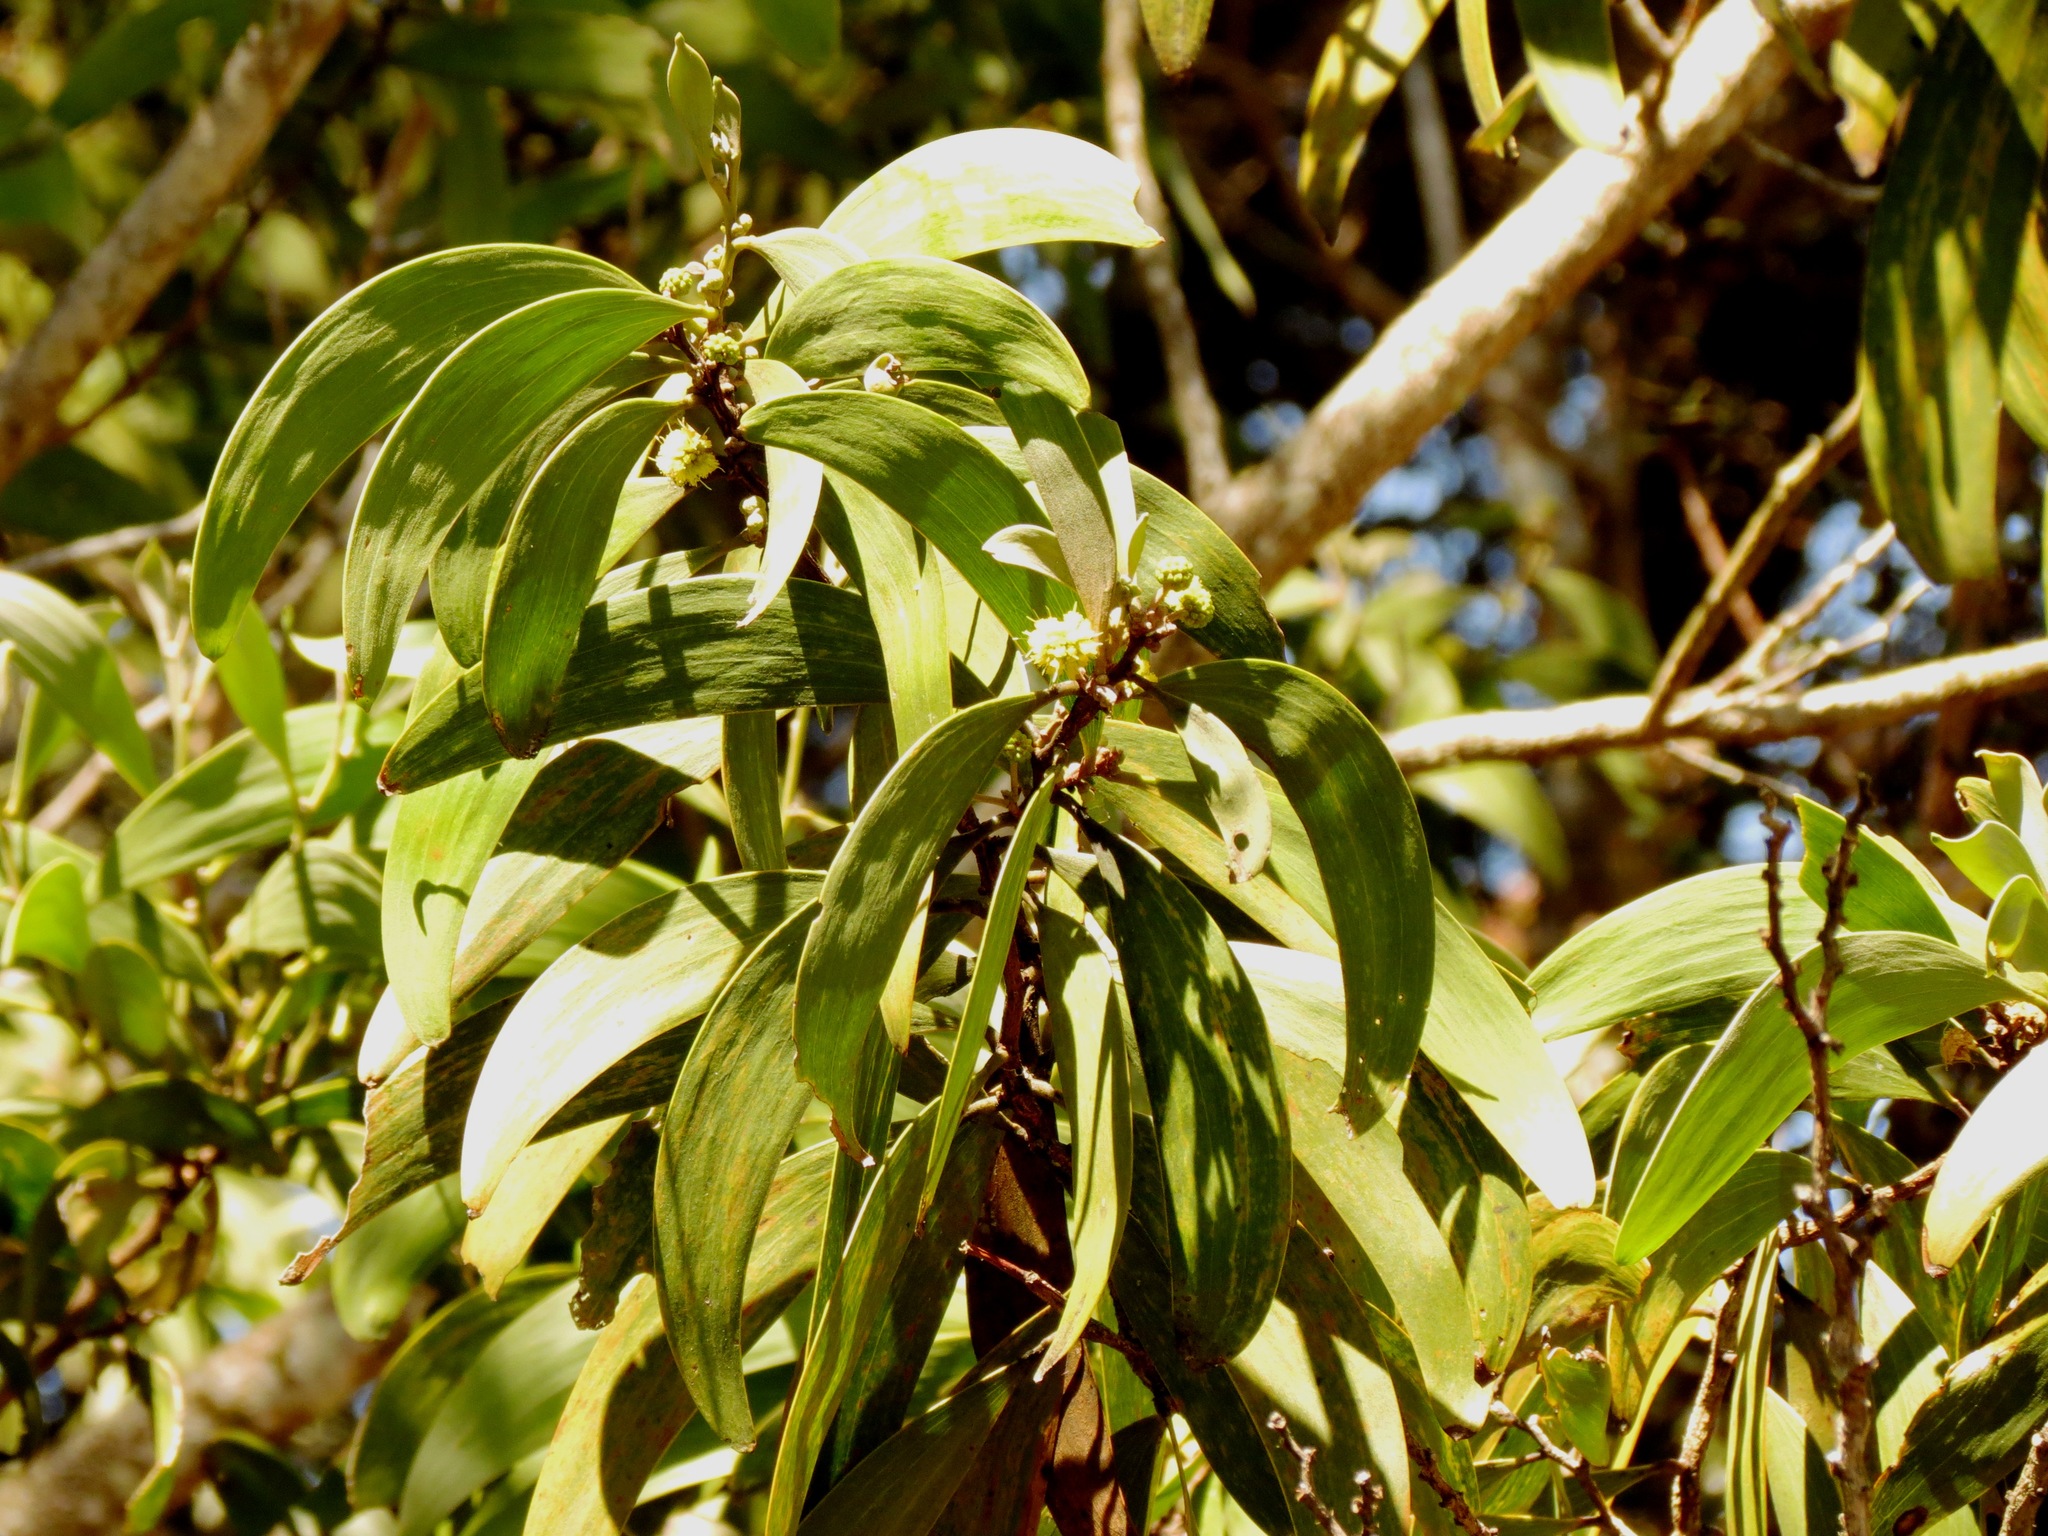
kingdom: Plantae
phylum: Tracheophyta
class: Magnoliopsida
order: Fabales
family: Fabaceae
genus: Acacia
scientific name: Acacia koa
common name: Gray koa
